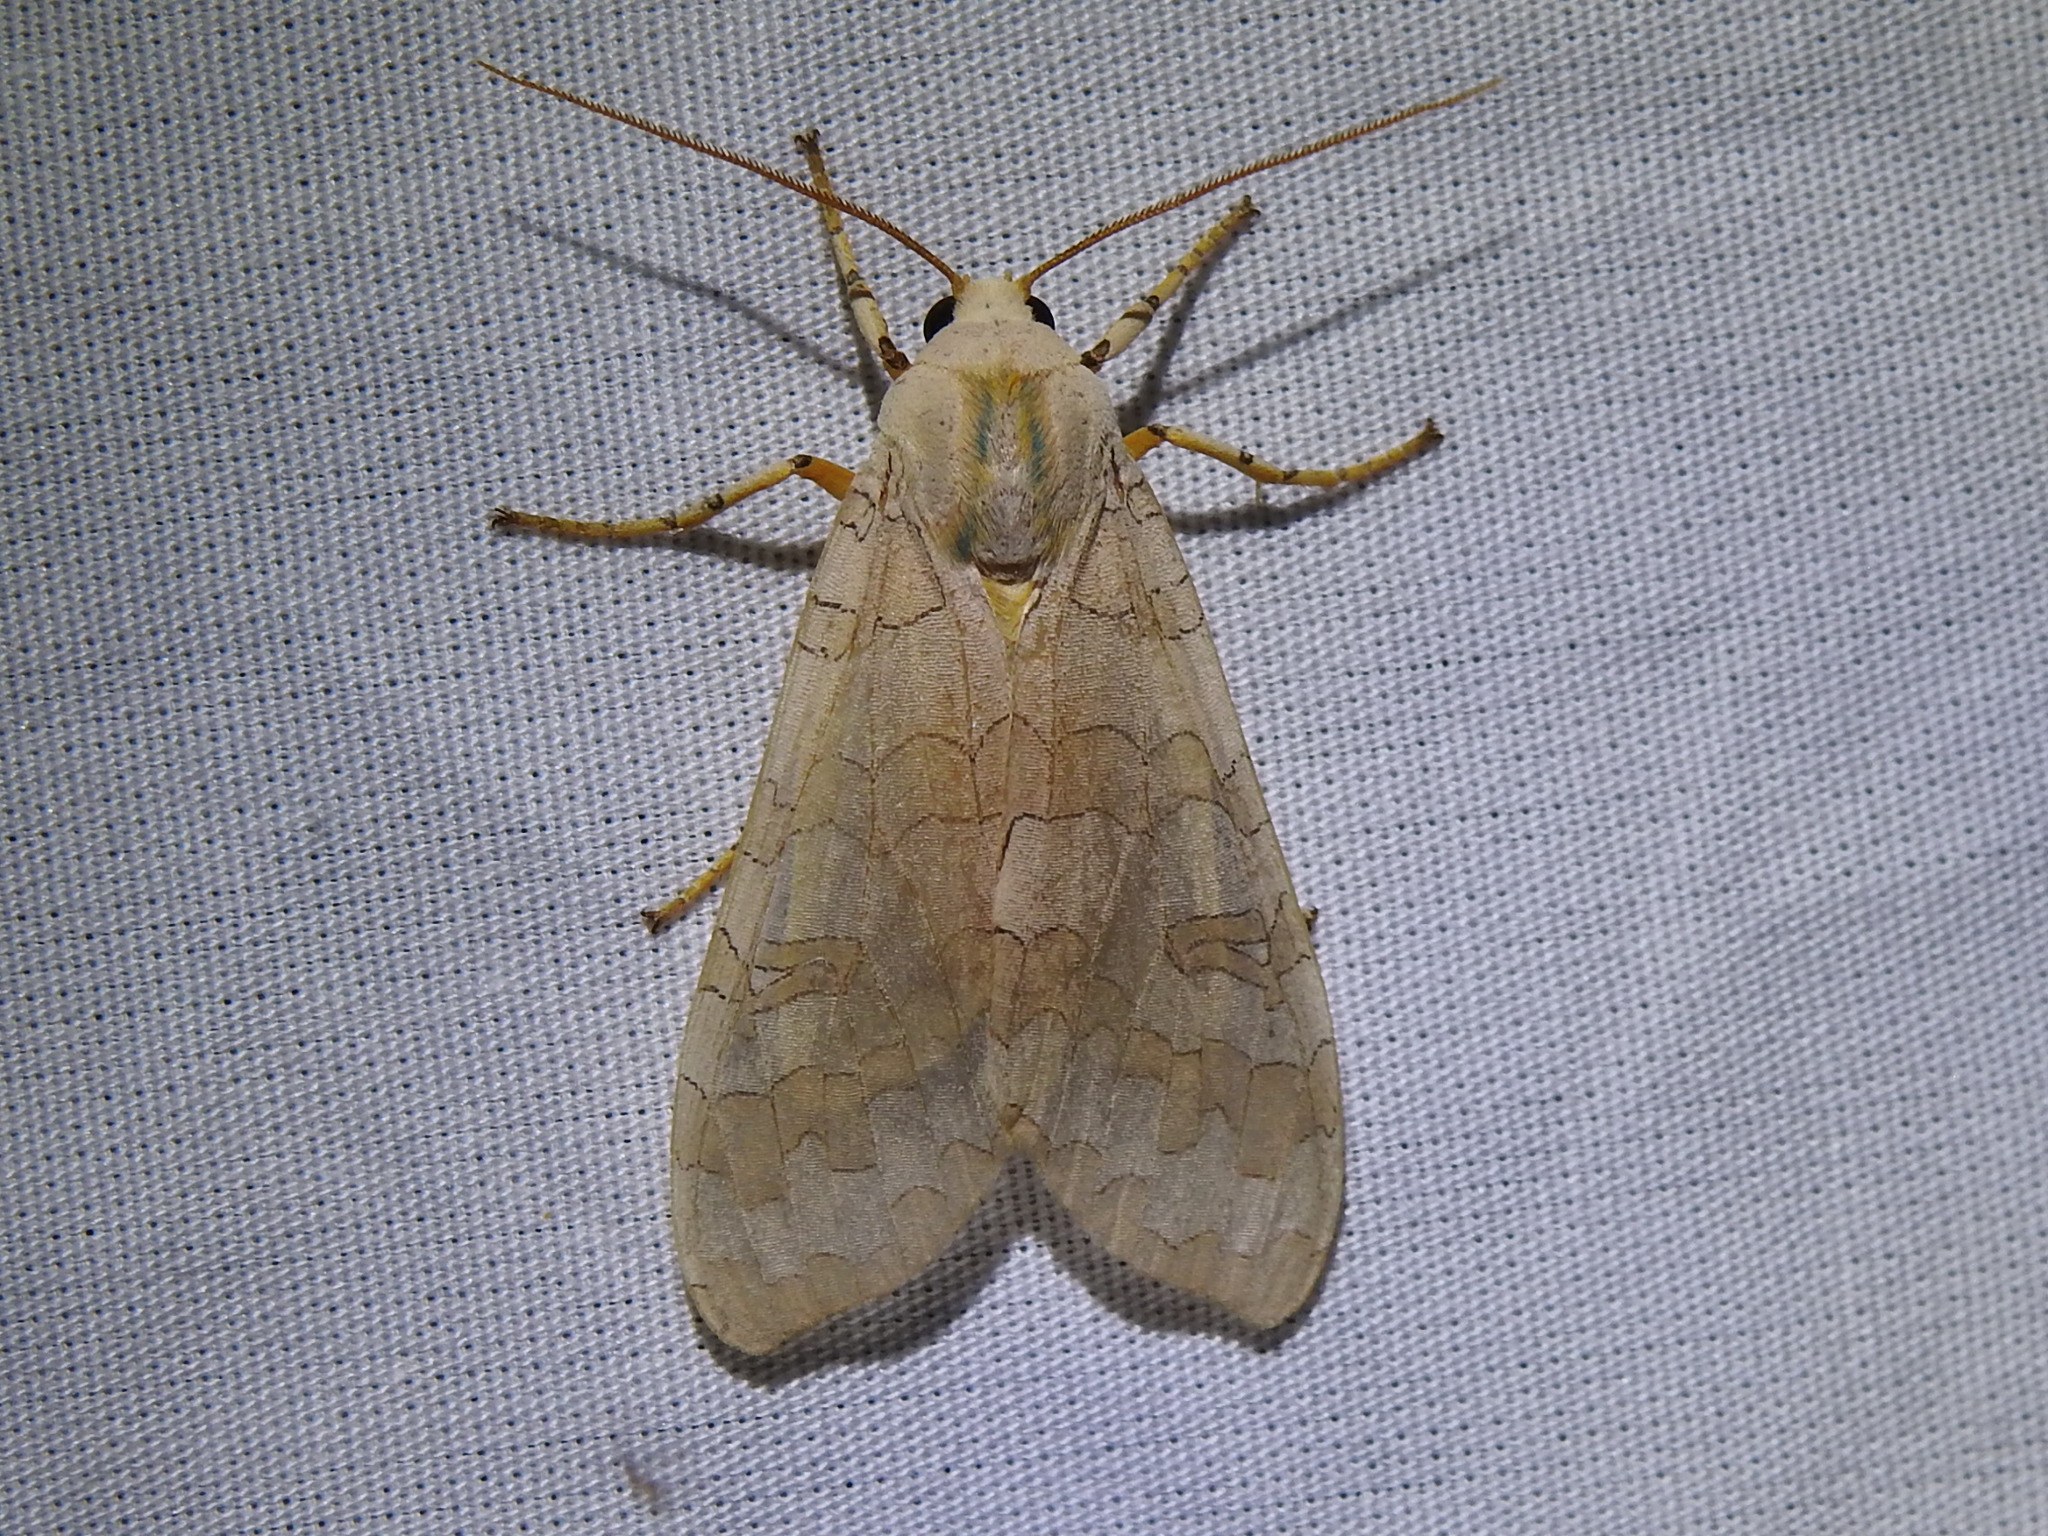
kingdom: Animalia
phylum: Arthropoda
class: Insecta
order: Lepidoptera
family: Erebidae
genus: Halysidota
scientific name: Halysidota
